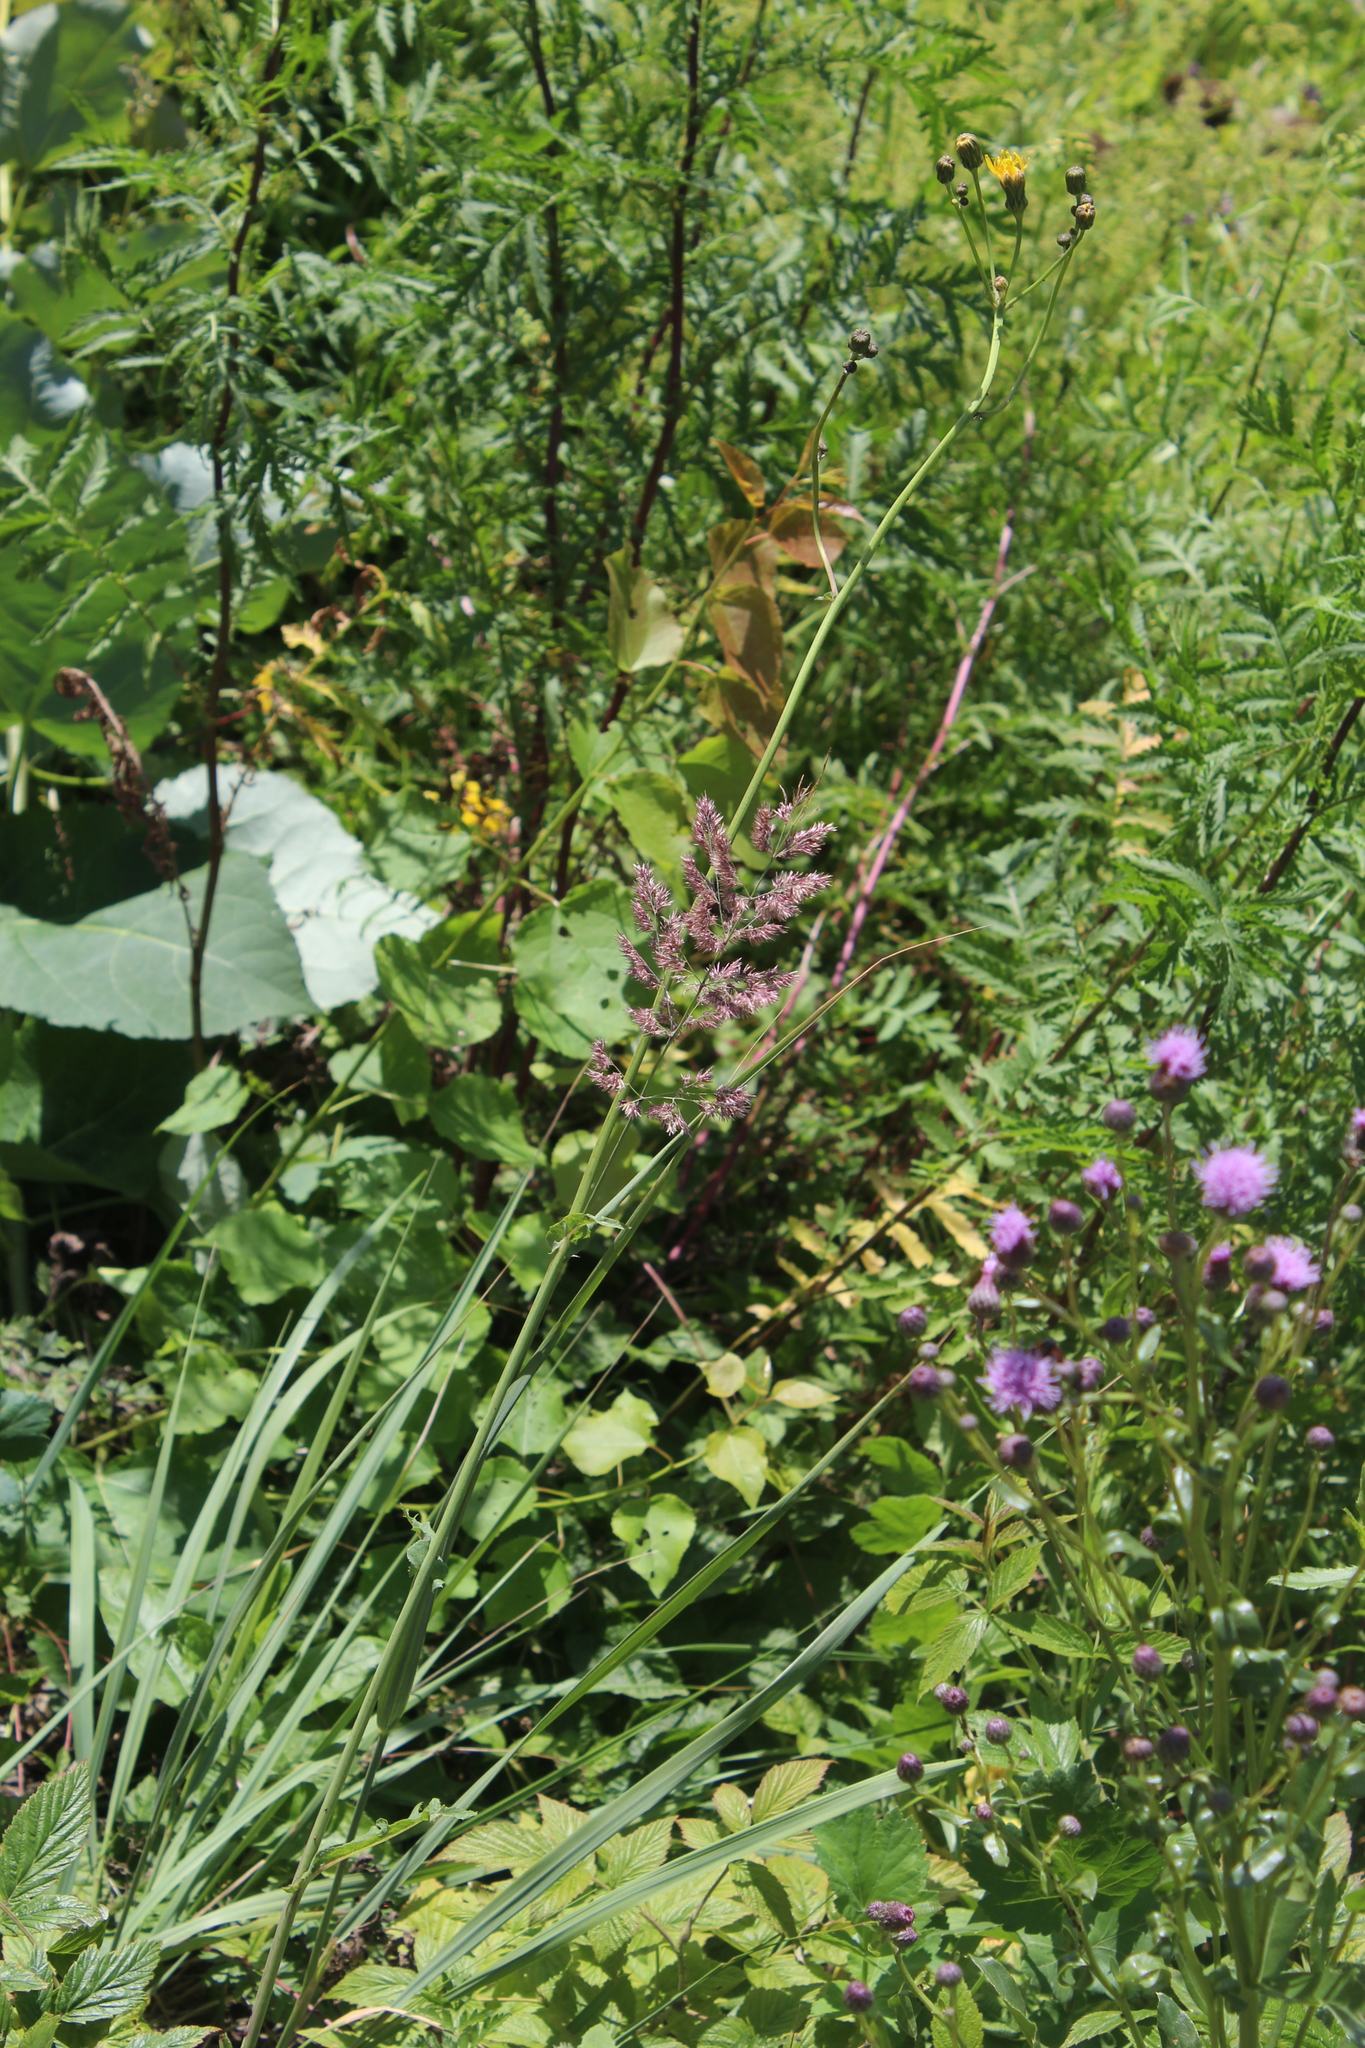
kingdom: Plantae
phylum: Tracheophyta
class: Liliopsida
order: Poales
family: Poaceae
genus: Calamagrostis
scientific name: Calamagrostis epigejos
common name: Wood small-reed
